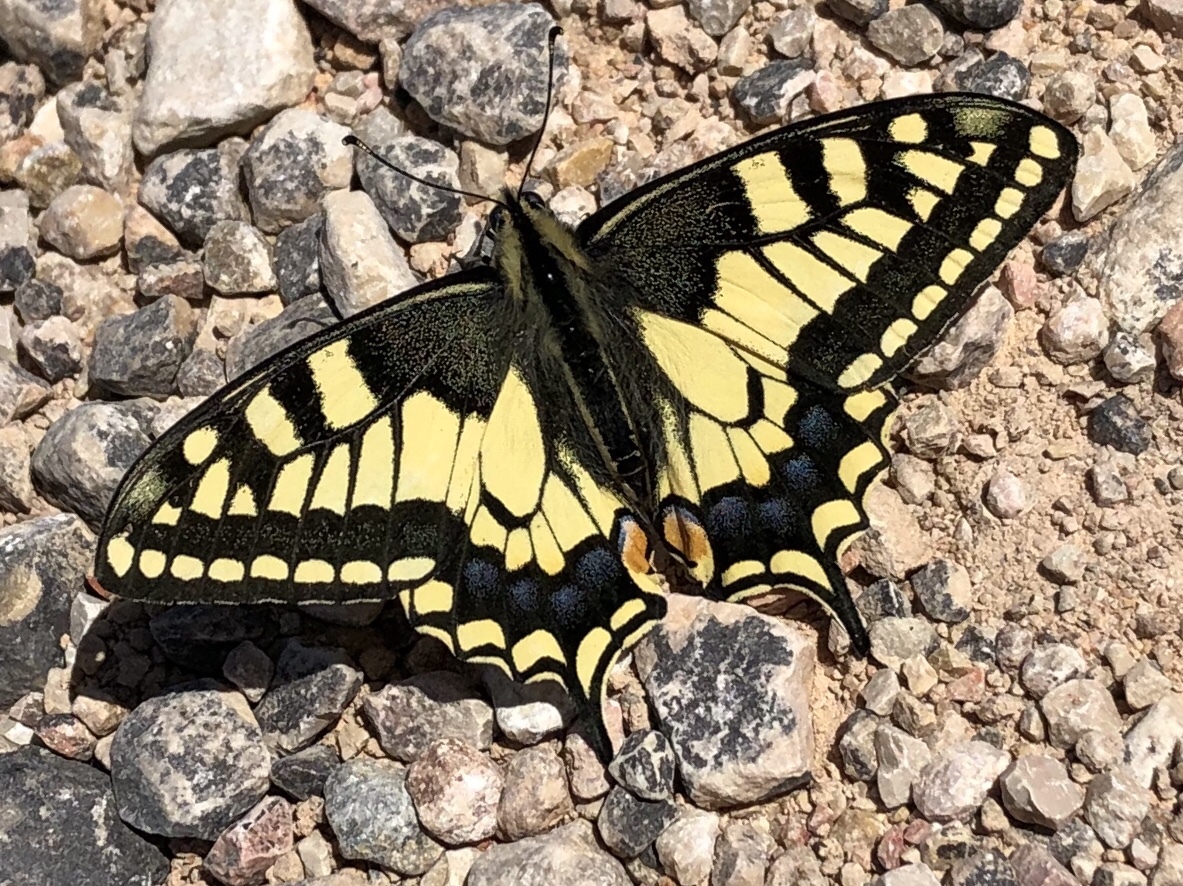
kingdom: Animalia
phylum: Arthropoda
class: Insecta
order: Lepidoptera
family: Papilionidae
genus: Papilio
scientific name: Papilio machaon
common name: Swallowtail
